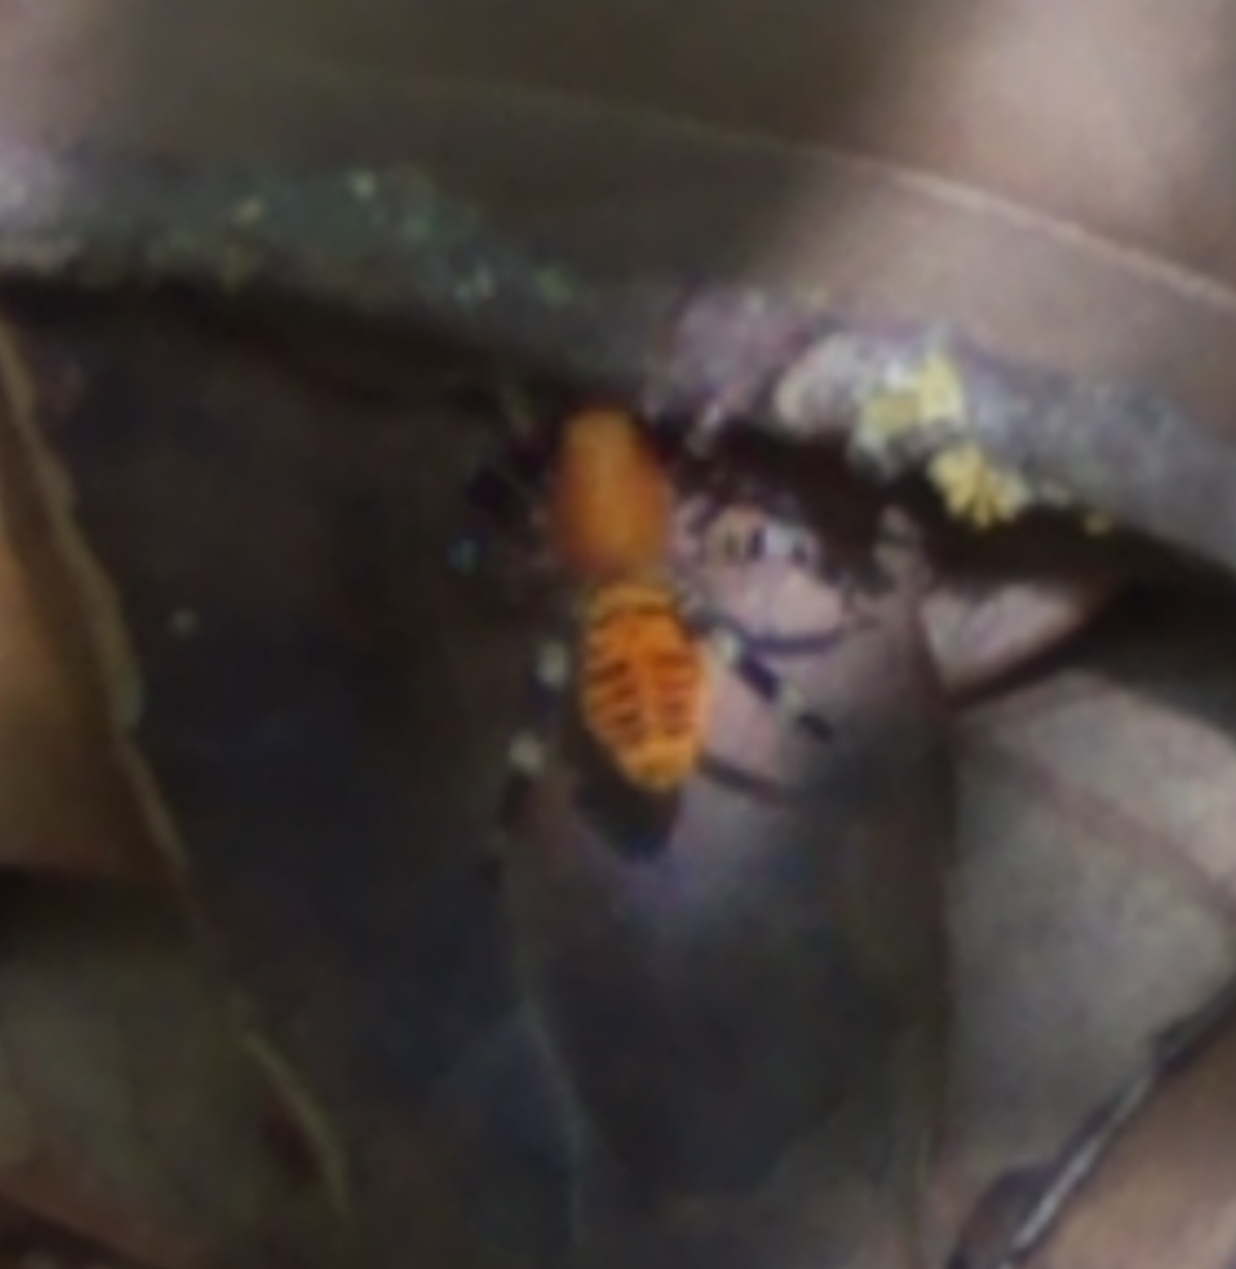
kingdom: Animalia
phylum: Arthropoda
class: Arachnida
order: Araneae
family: Corinnidae
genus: Castianeira
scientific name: Castianeira amoena
